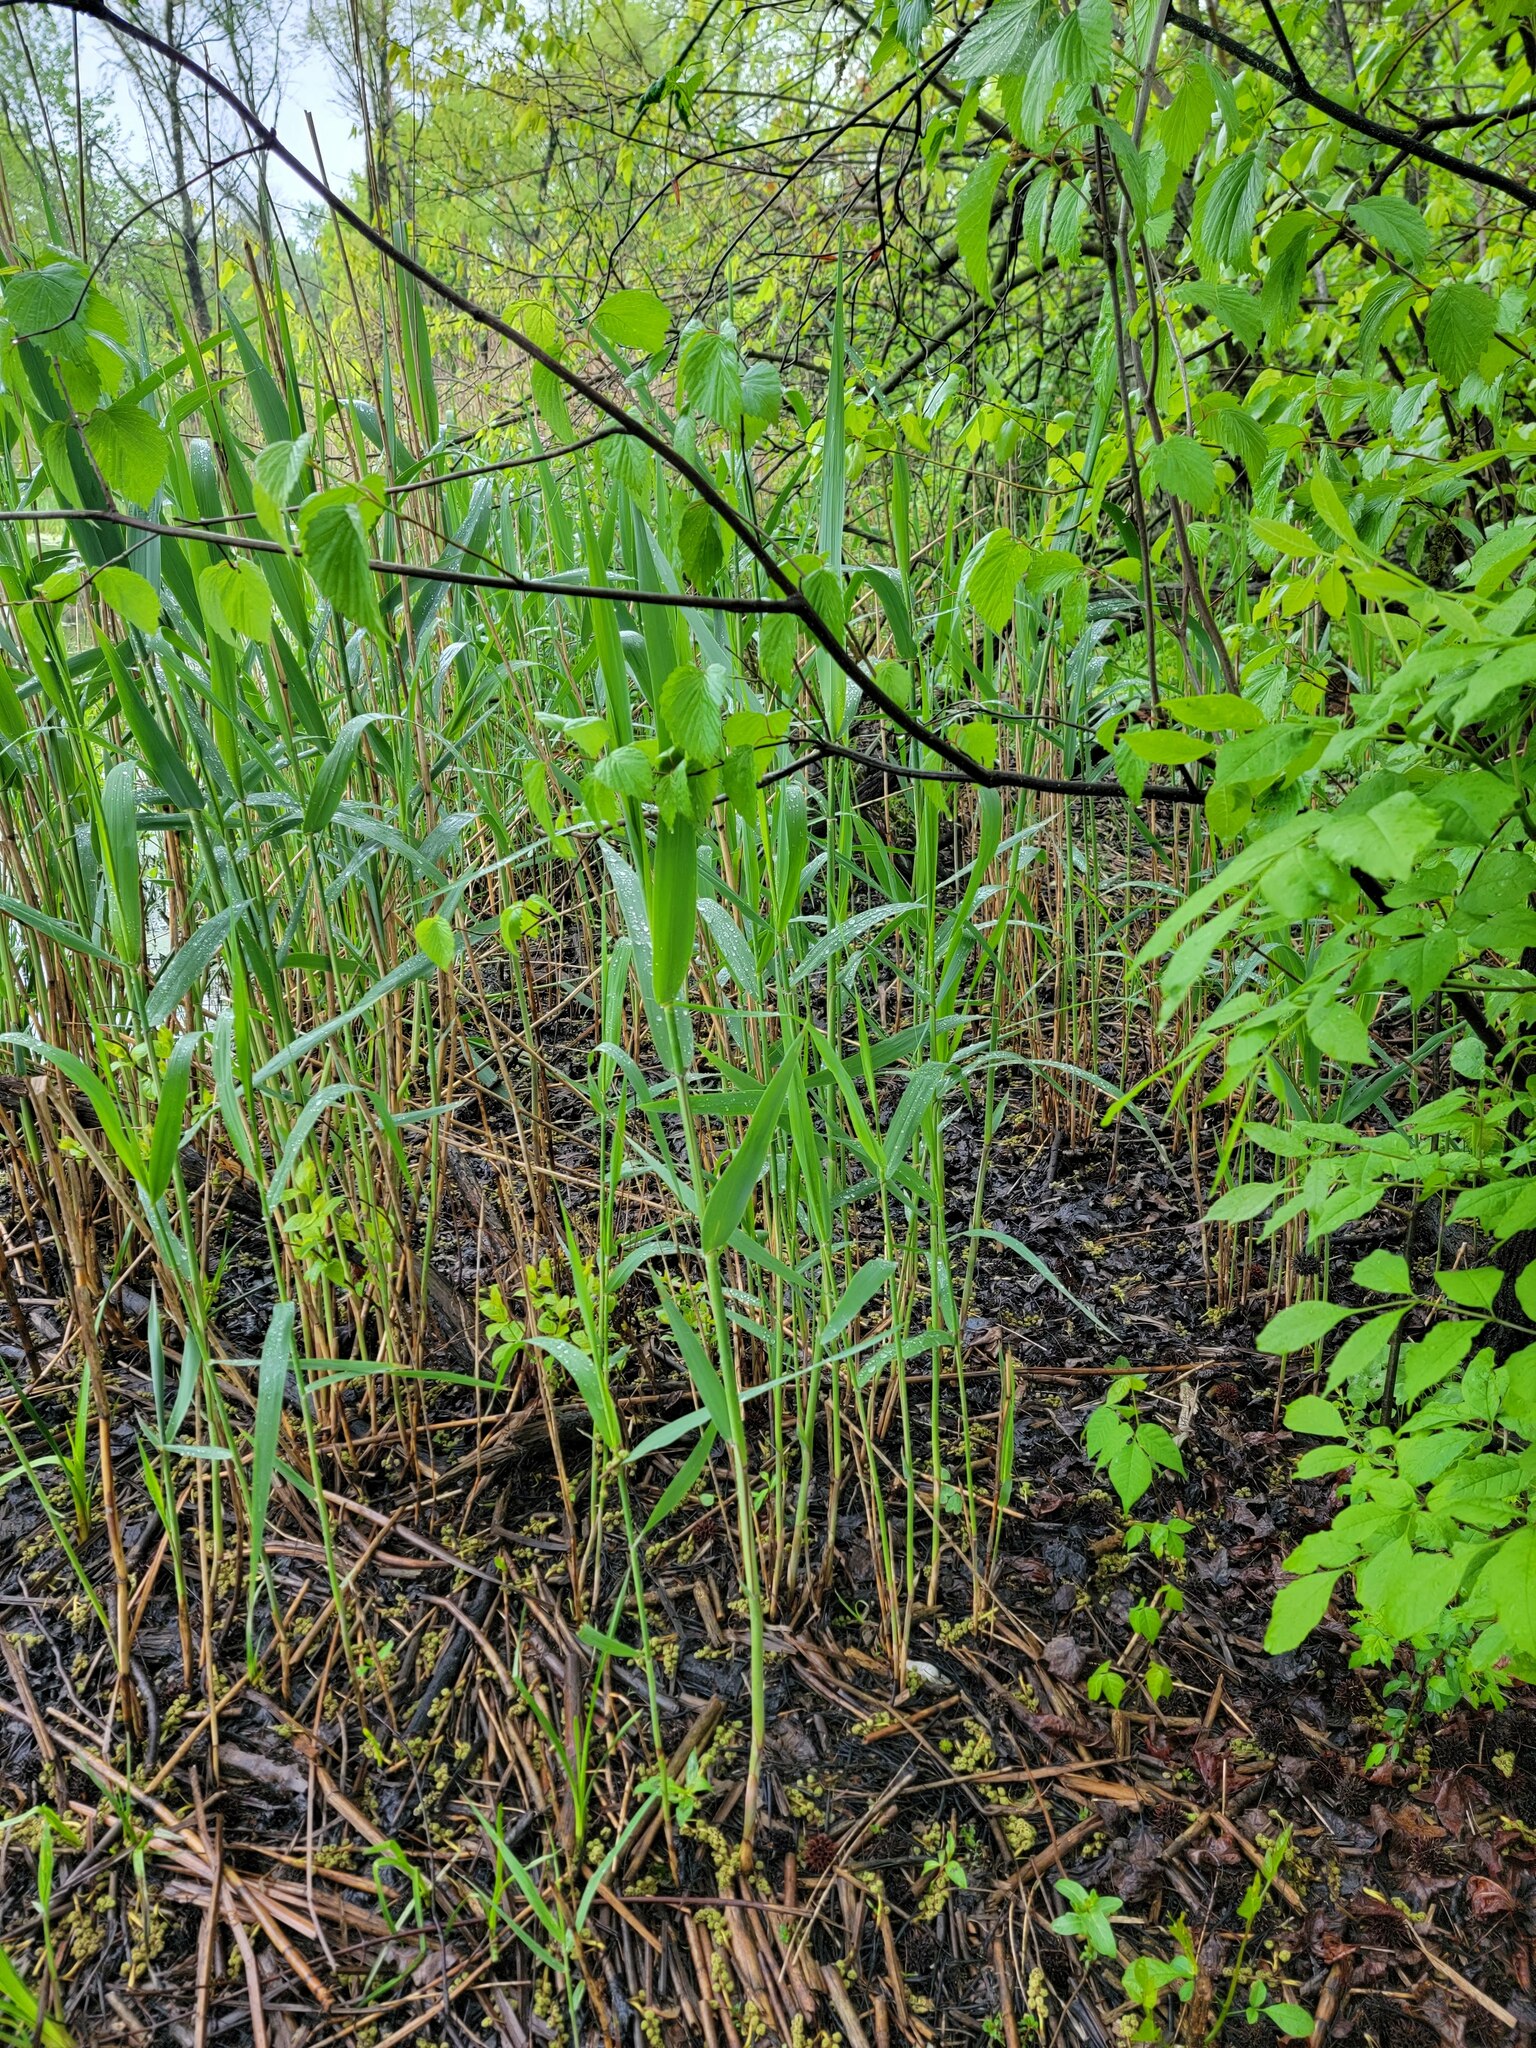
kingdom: Plantae
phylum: Tracheophyta
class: Liliopsida
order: Poales
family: Poaceae
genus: Phragmites
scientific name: Phragmites australis
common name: Common reed
